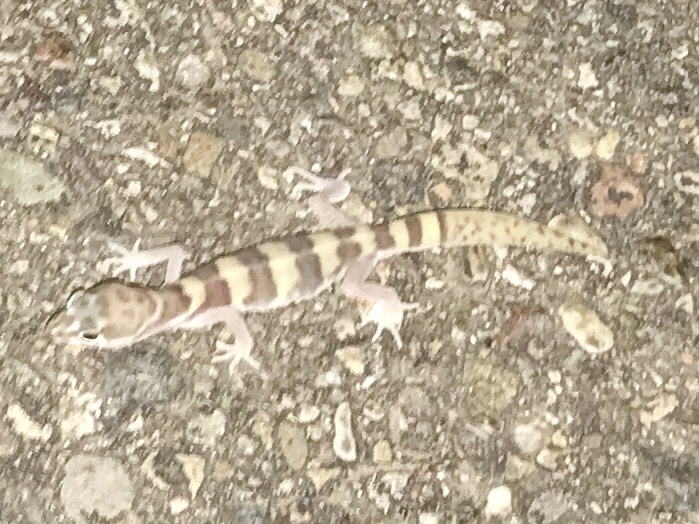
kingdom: Animalia
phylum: Chordata
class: Squamata
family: Eublepharidae
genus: Coleonyx
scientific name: Coleonyx variegatus
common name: Western banded gecko
